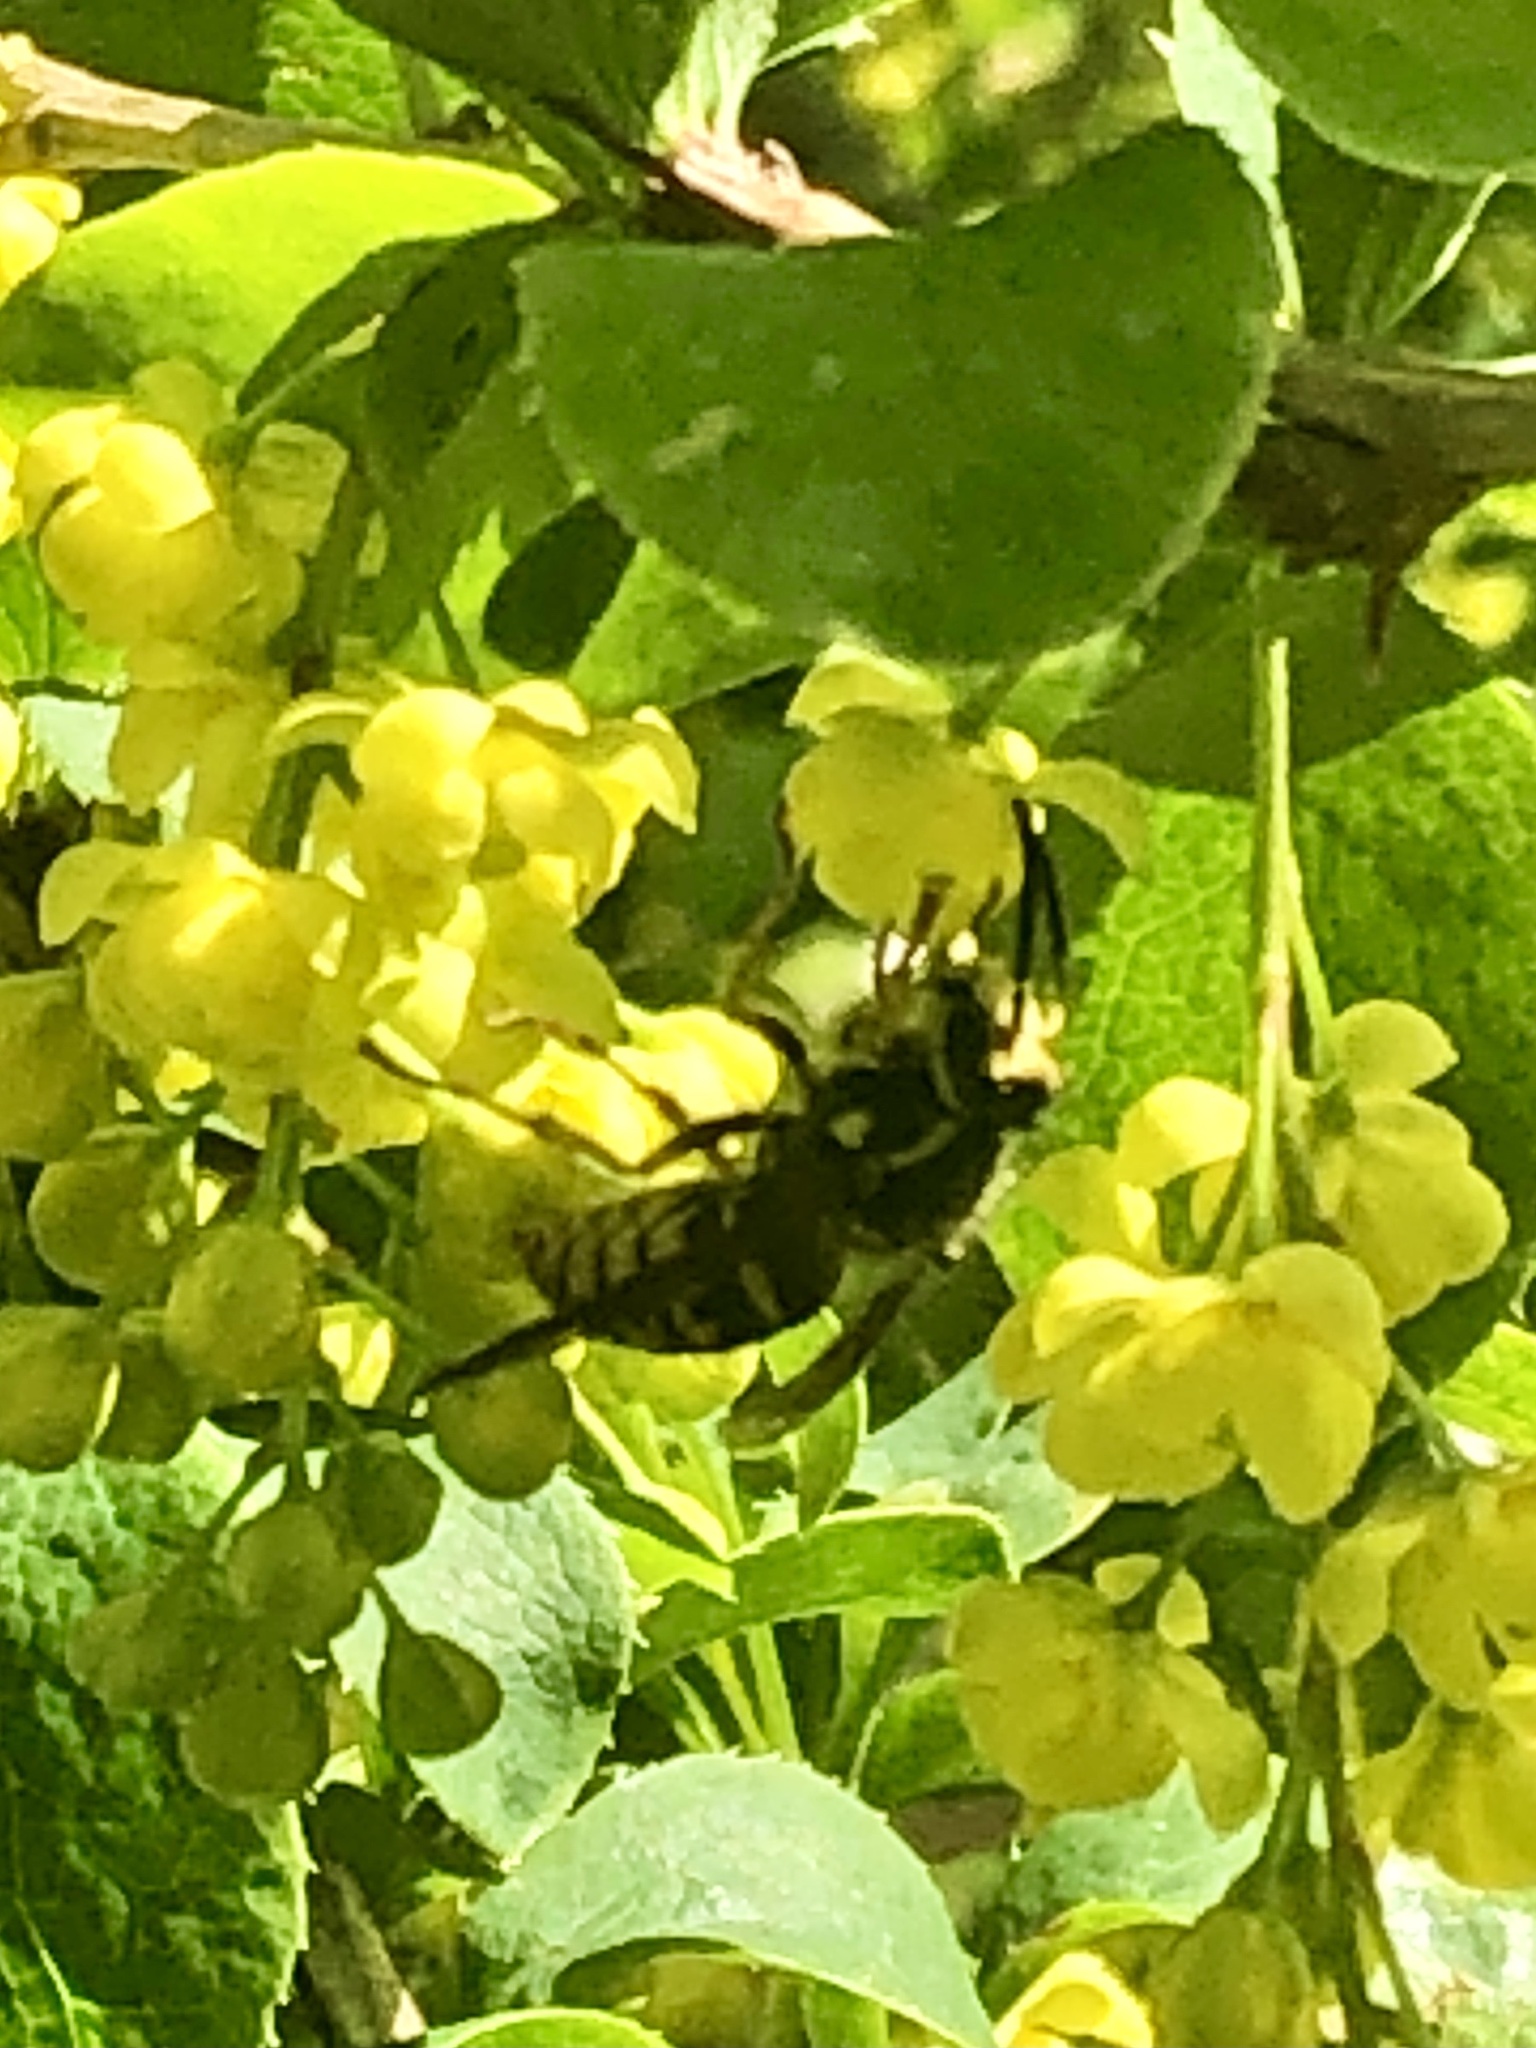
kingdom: Animalia
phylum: Arthropoda
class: Insecta
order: Hymenoptera
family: Vespidae
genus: Dolichovespula
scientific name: Dolichovespula arenaria
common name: Aerial yellowjacket
